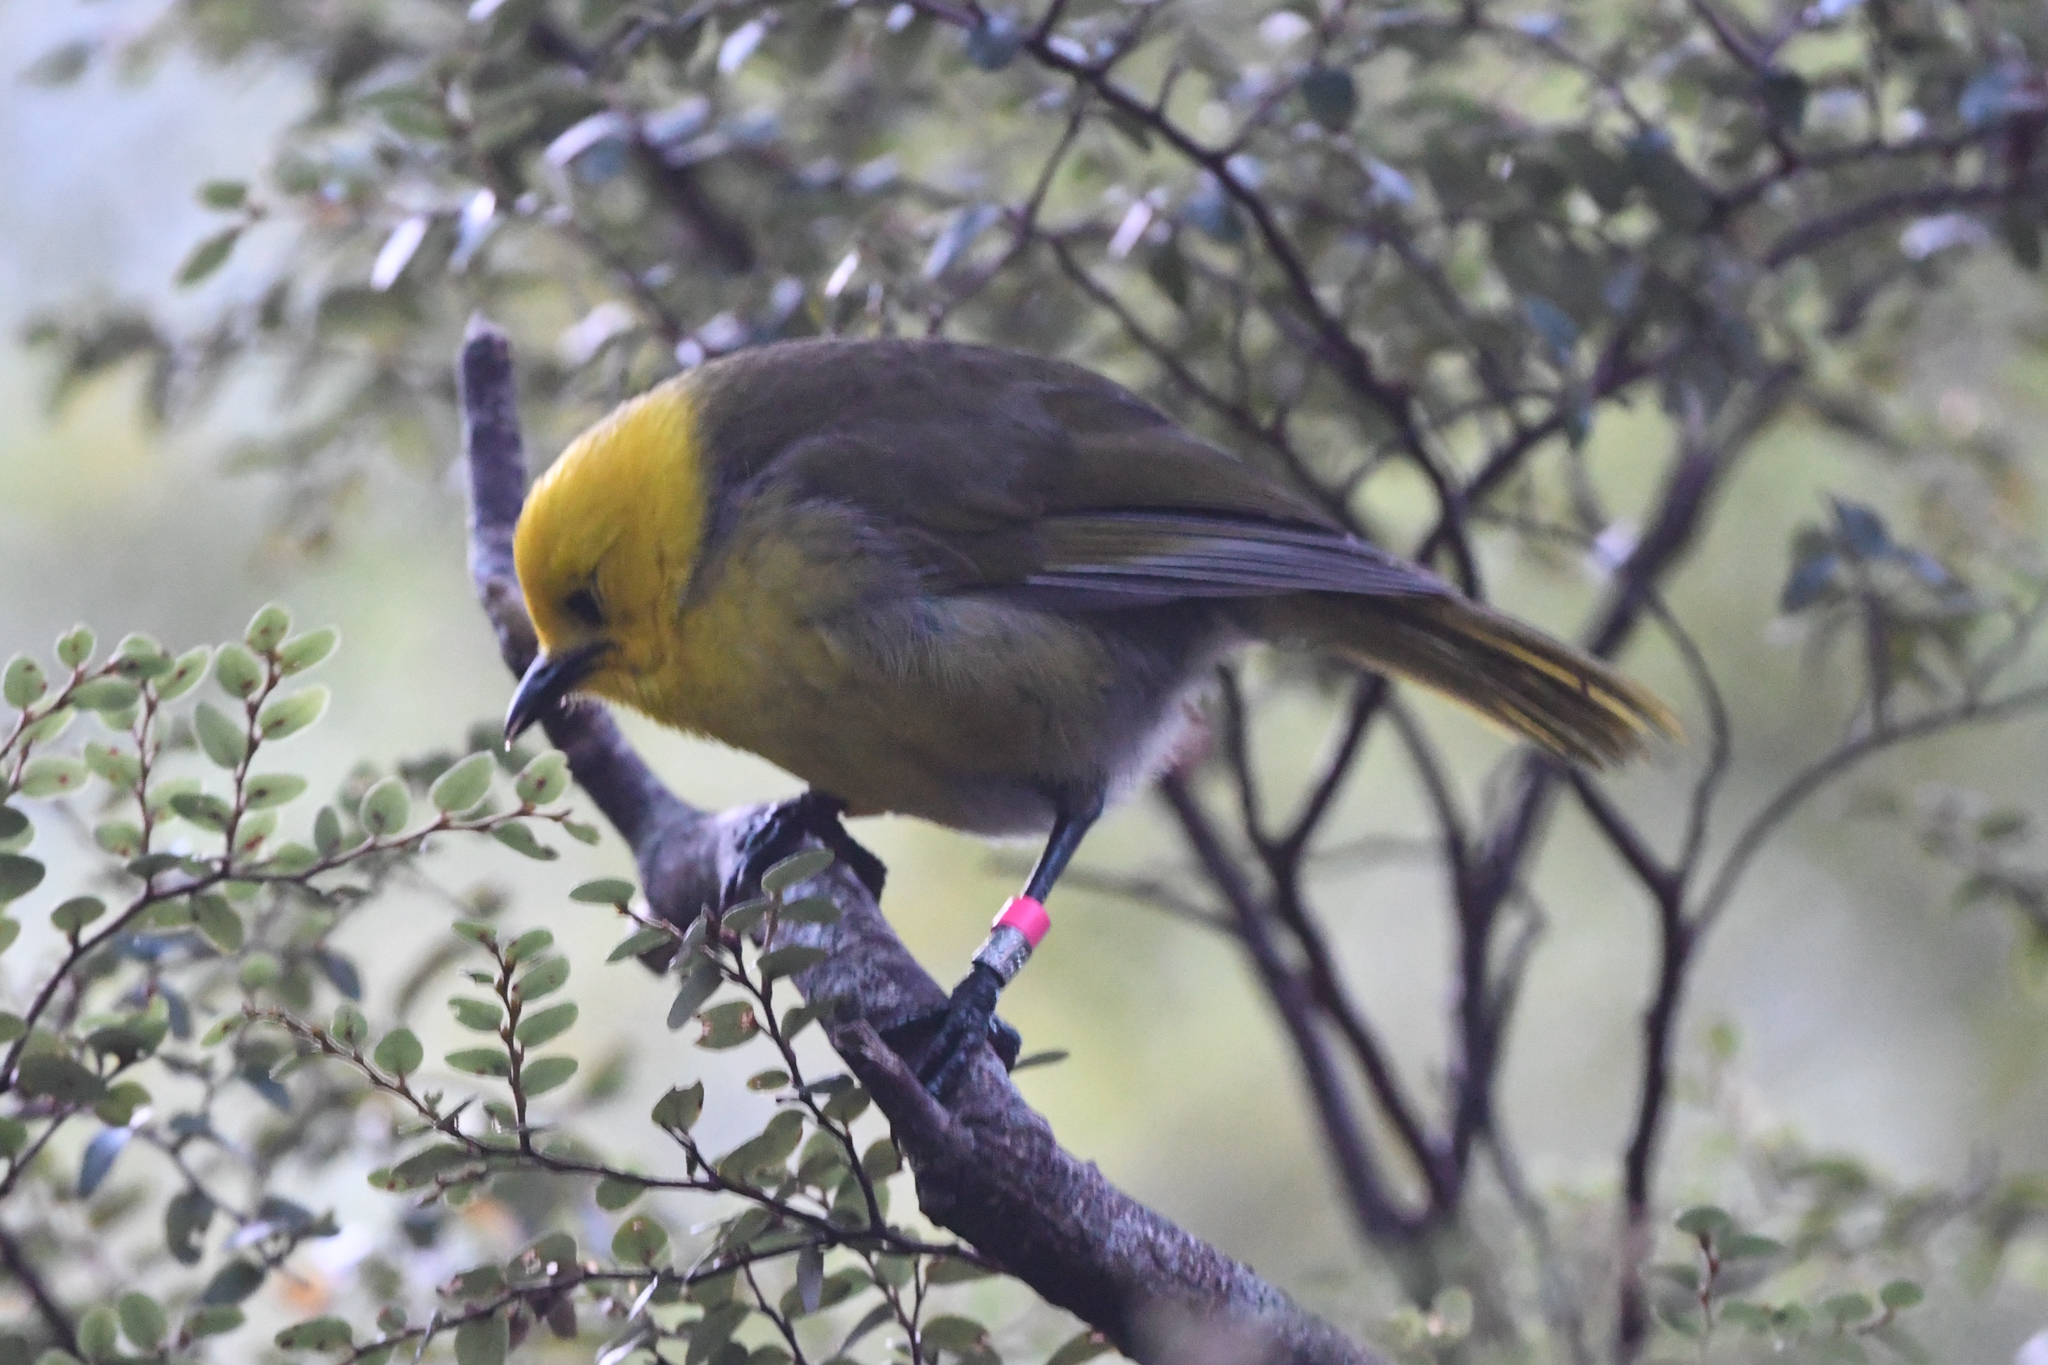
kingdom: Animalia
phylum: Chordata
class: Aves
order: Passeriformes
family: Acanthizidae
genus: Mohoua
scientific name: Mohoua ochrocephala
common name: Yellowhead
